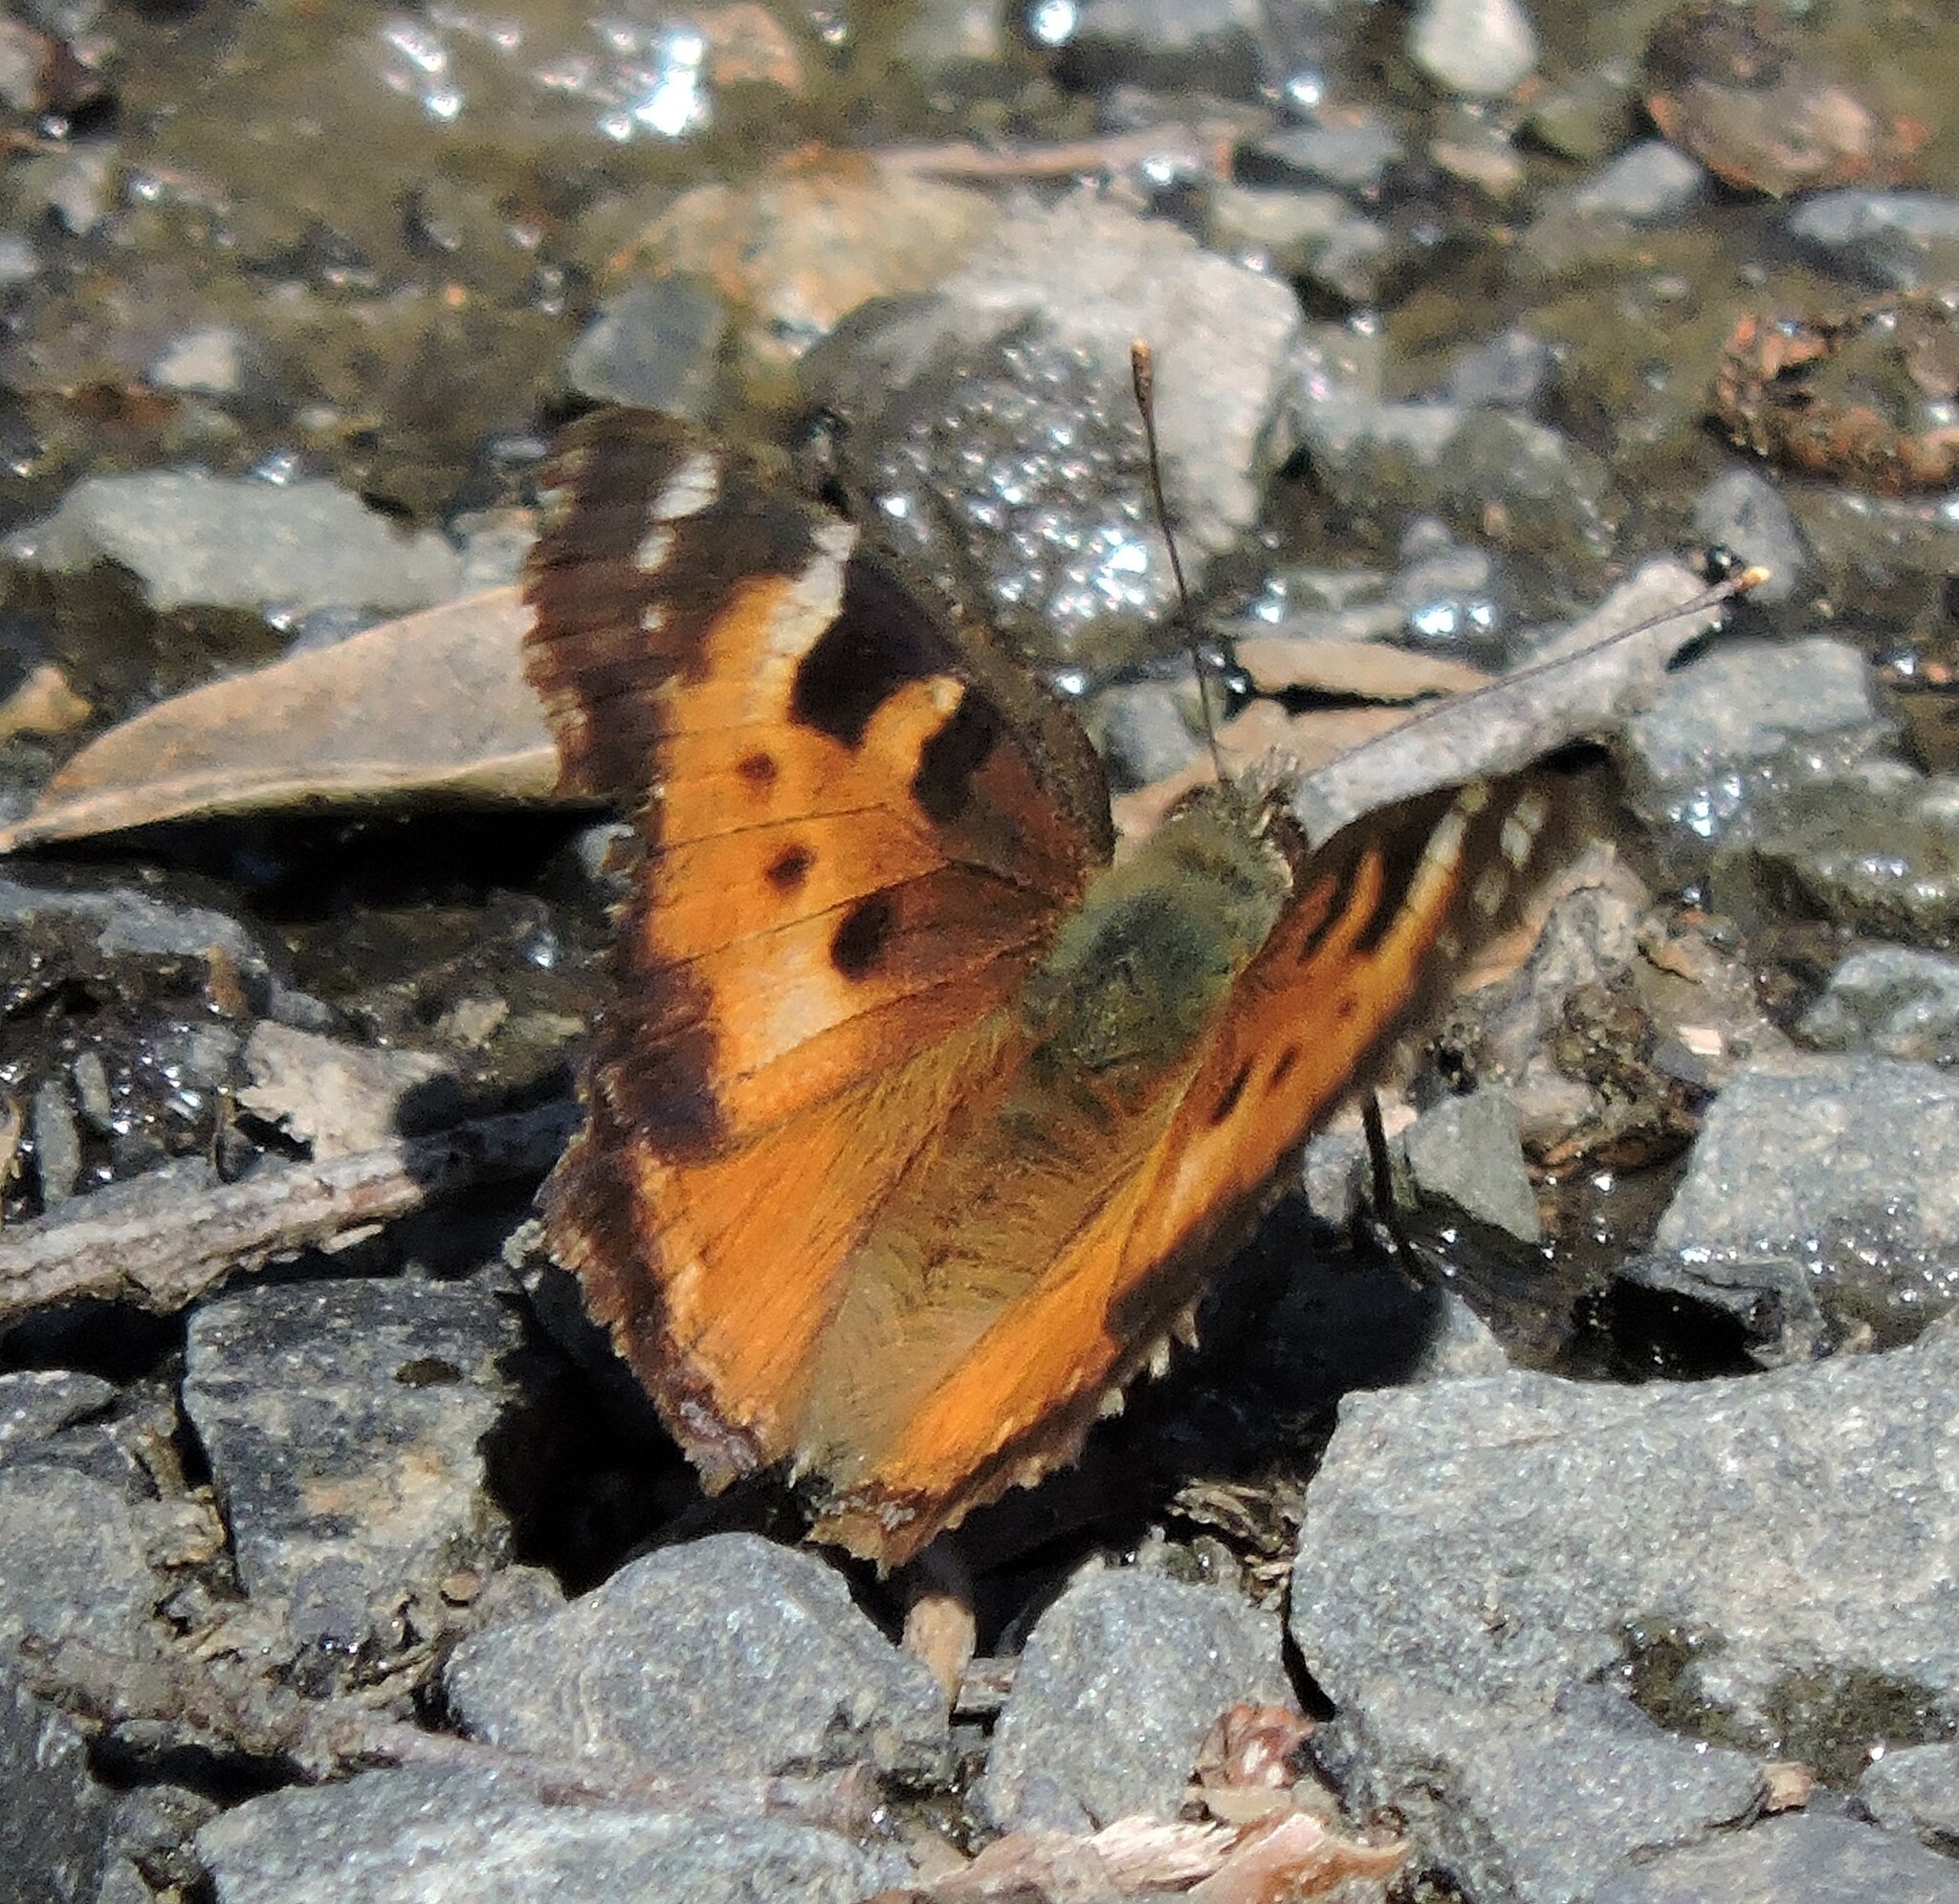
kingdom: Animalia
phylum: Arthropoda
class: Insecta
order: Lepidoptera
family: Nymphalidae
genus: Nymphalis
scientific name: Nymphalis californica
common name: California tortoiseshell
